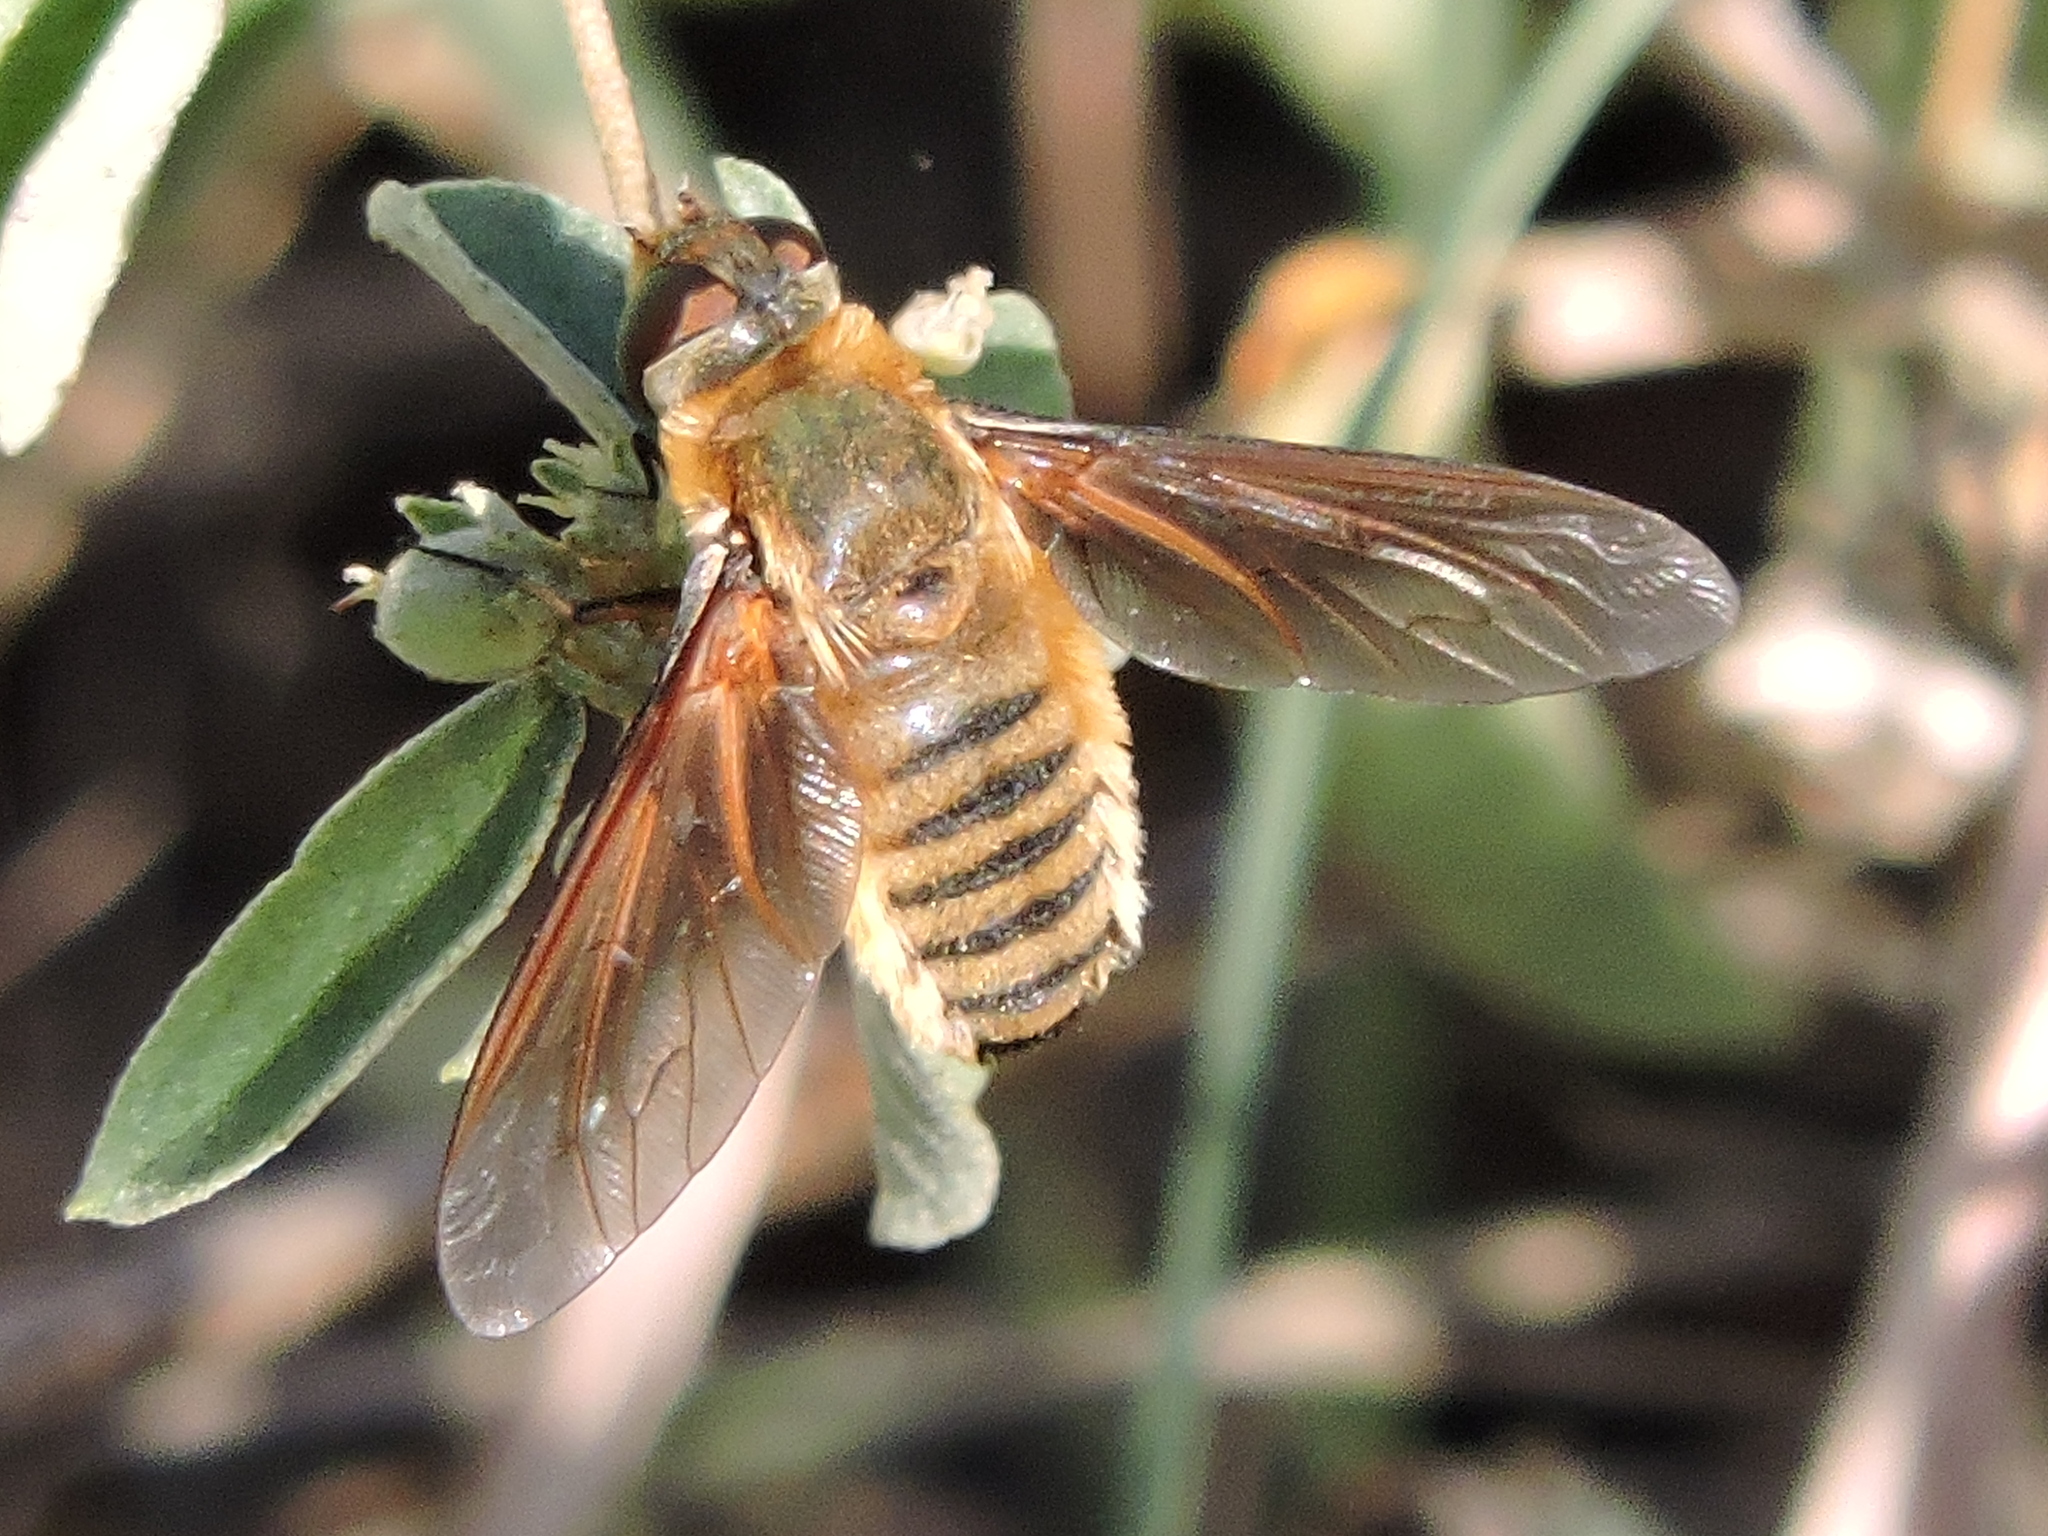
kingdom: Animalia
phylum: Arthropoda
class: Insecta
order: Diptera
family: Bombyliidae
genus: Poecilanthrax
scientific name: Poecilanthrax lucifer
